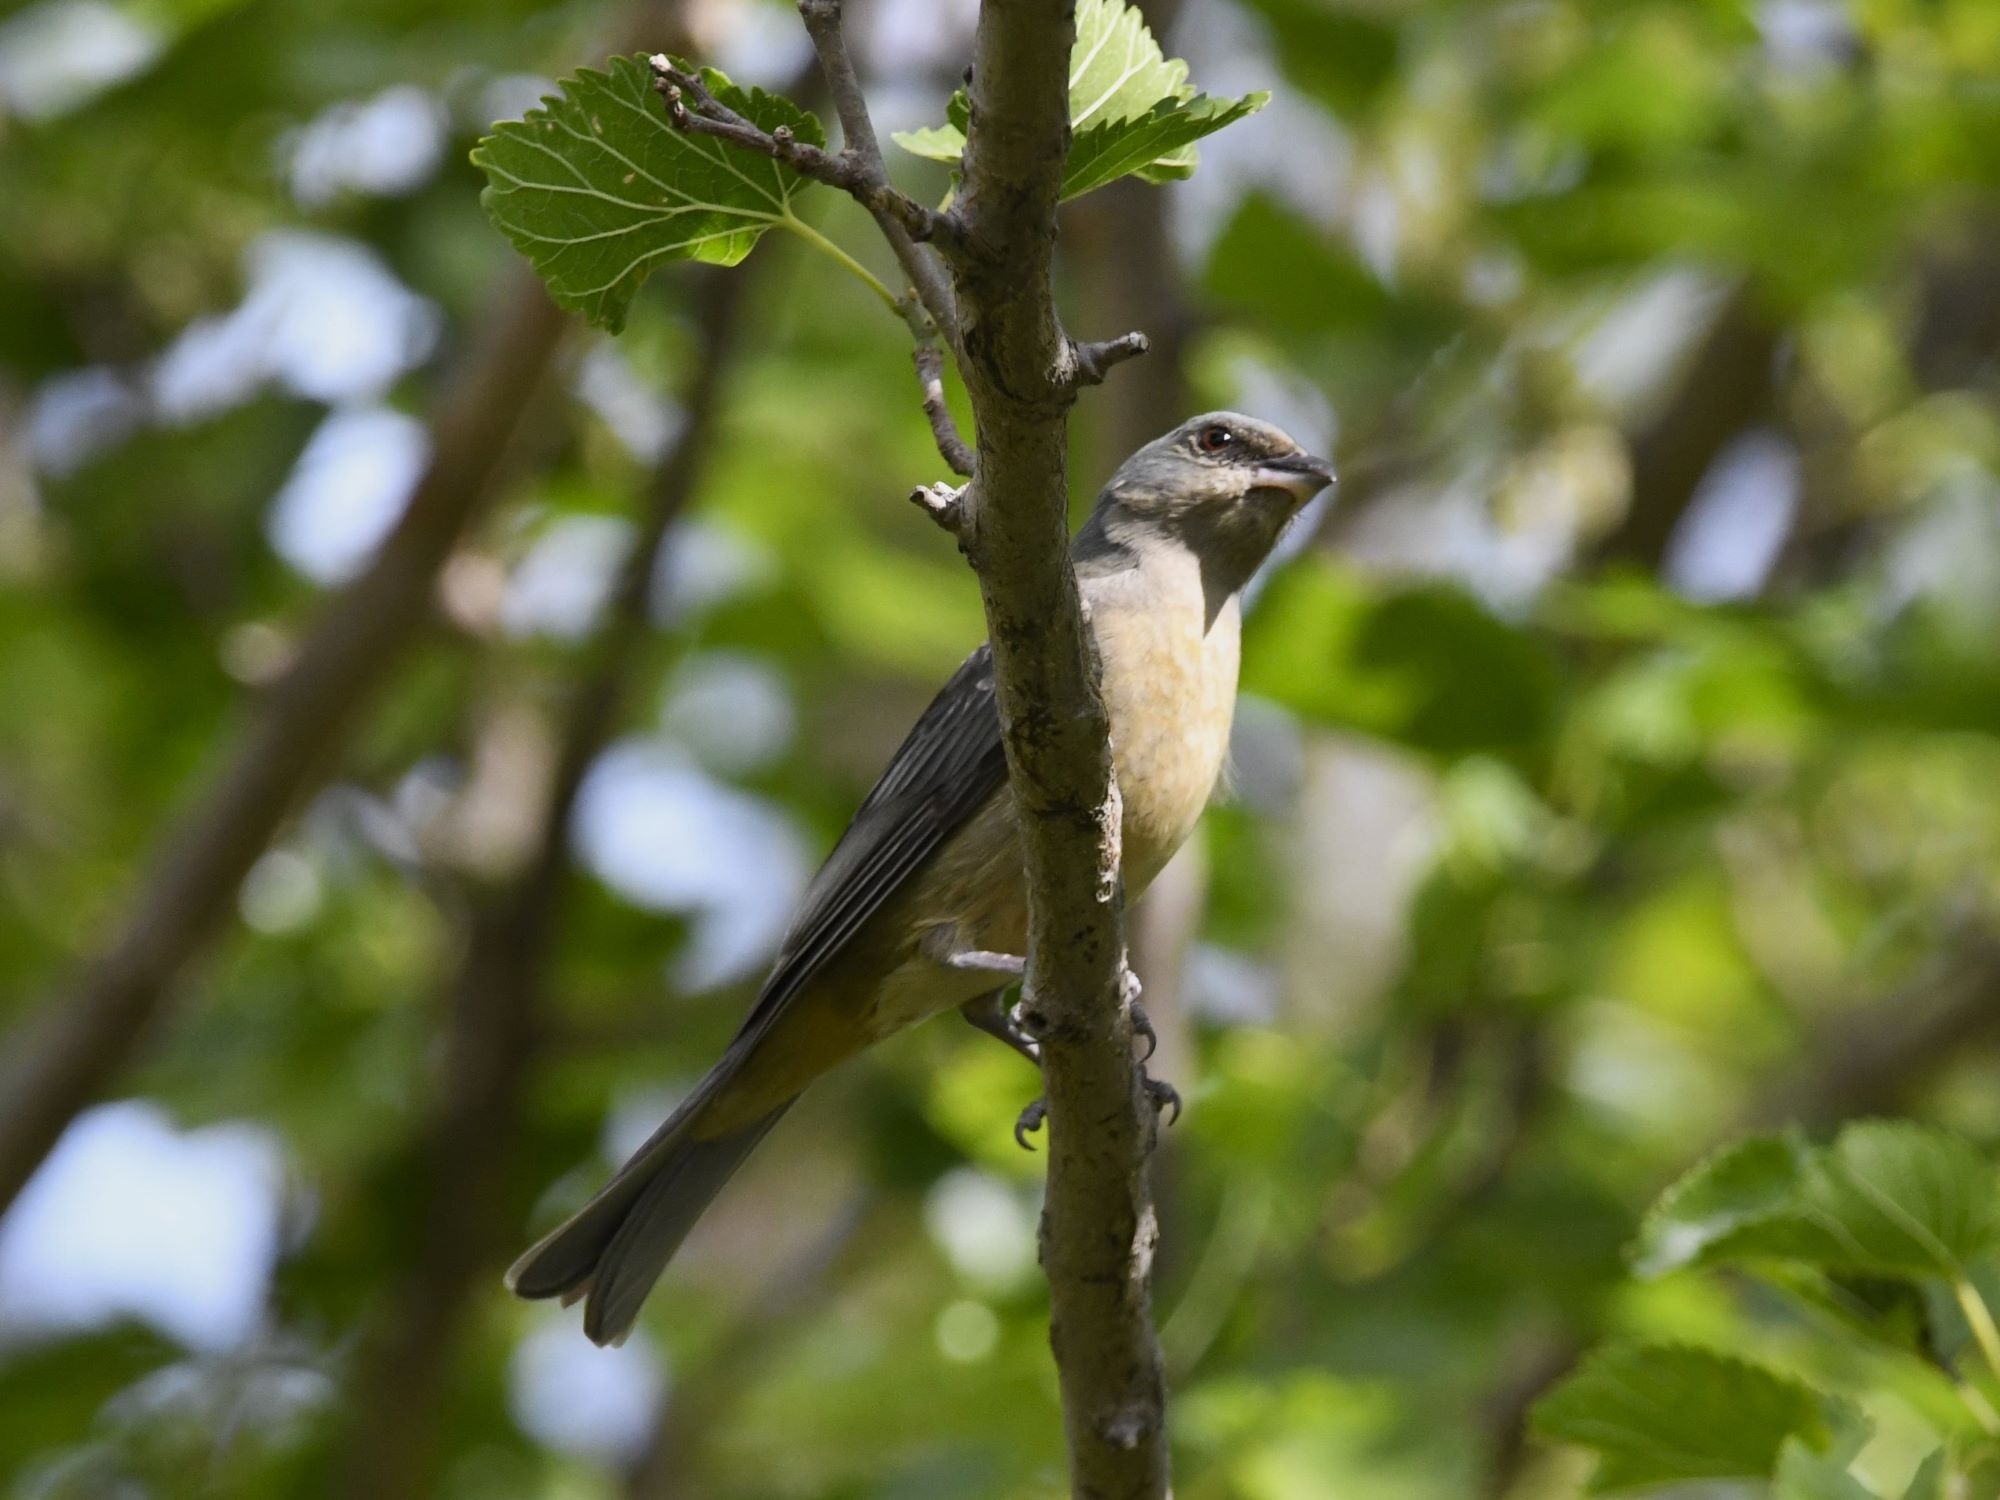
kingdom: Animalia
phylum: Chordata
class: Aves
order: Passeriformes
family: Thraupidae
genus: Rauenia
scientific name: Rauenia bonariensis
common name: Blue-and-yellow tanager
